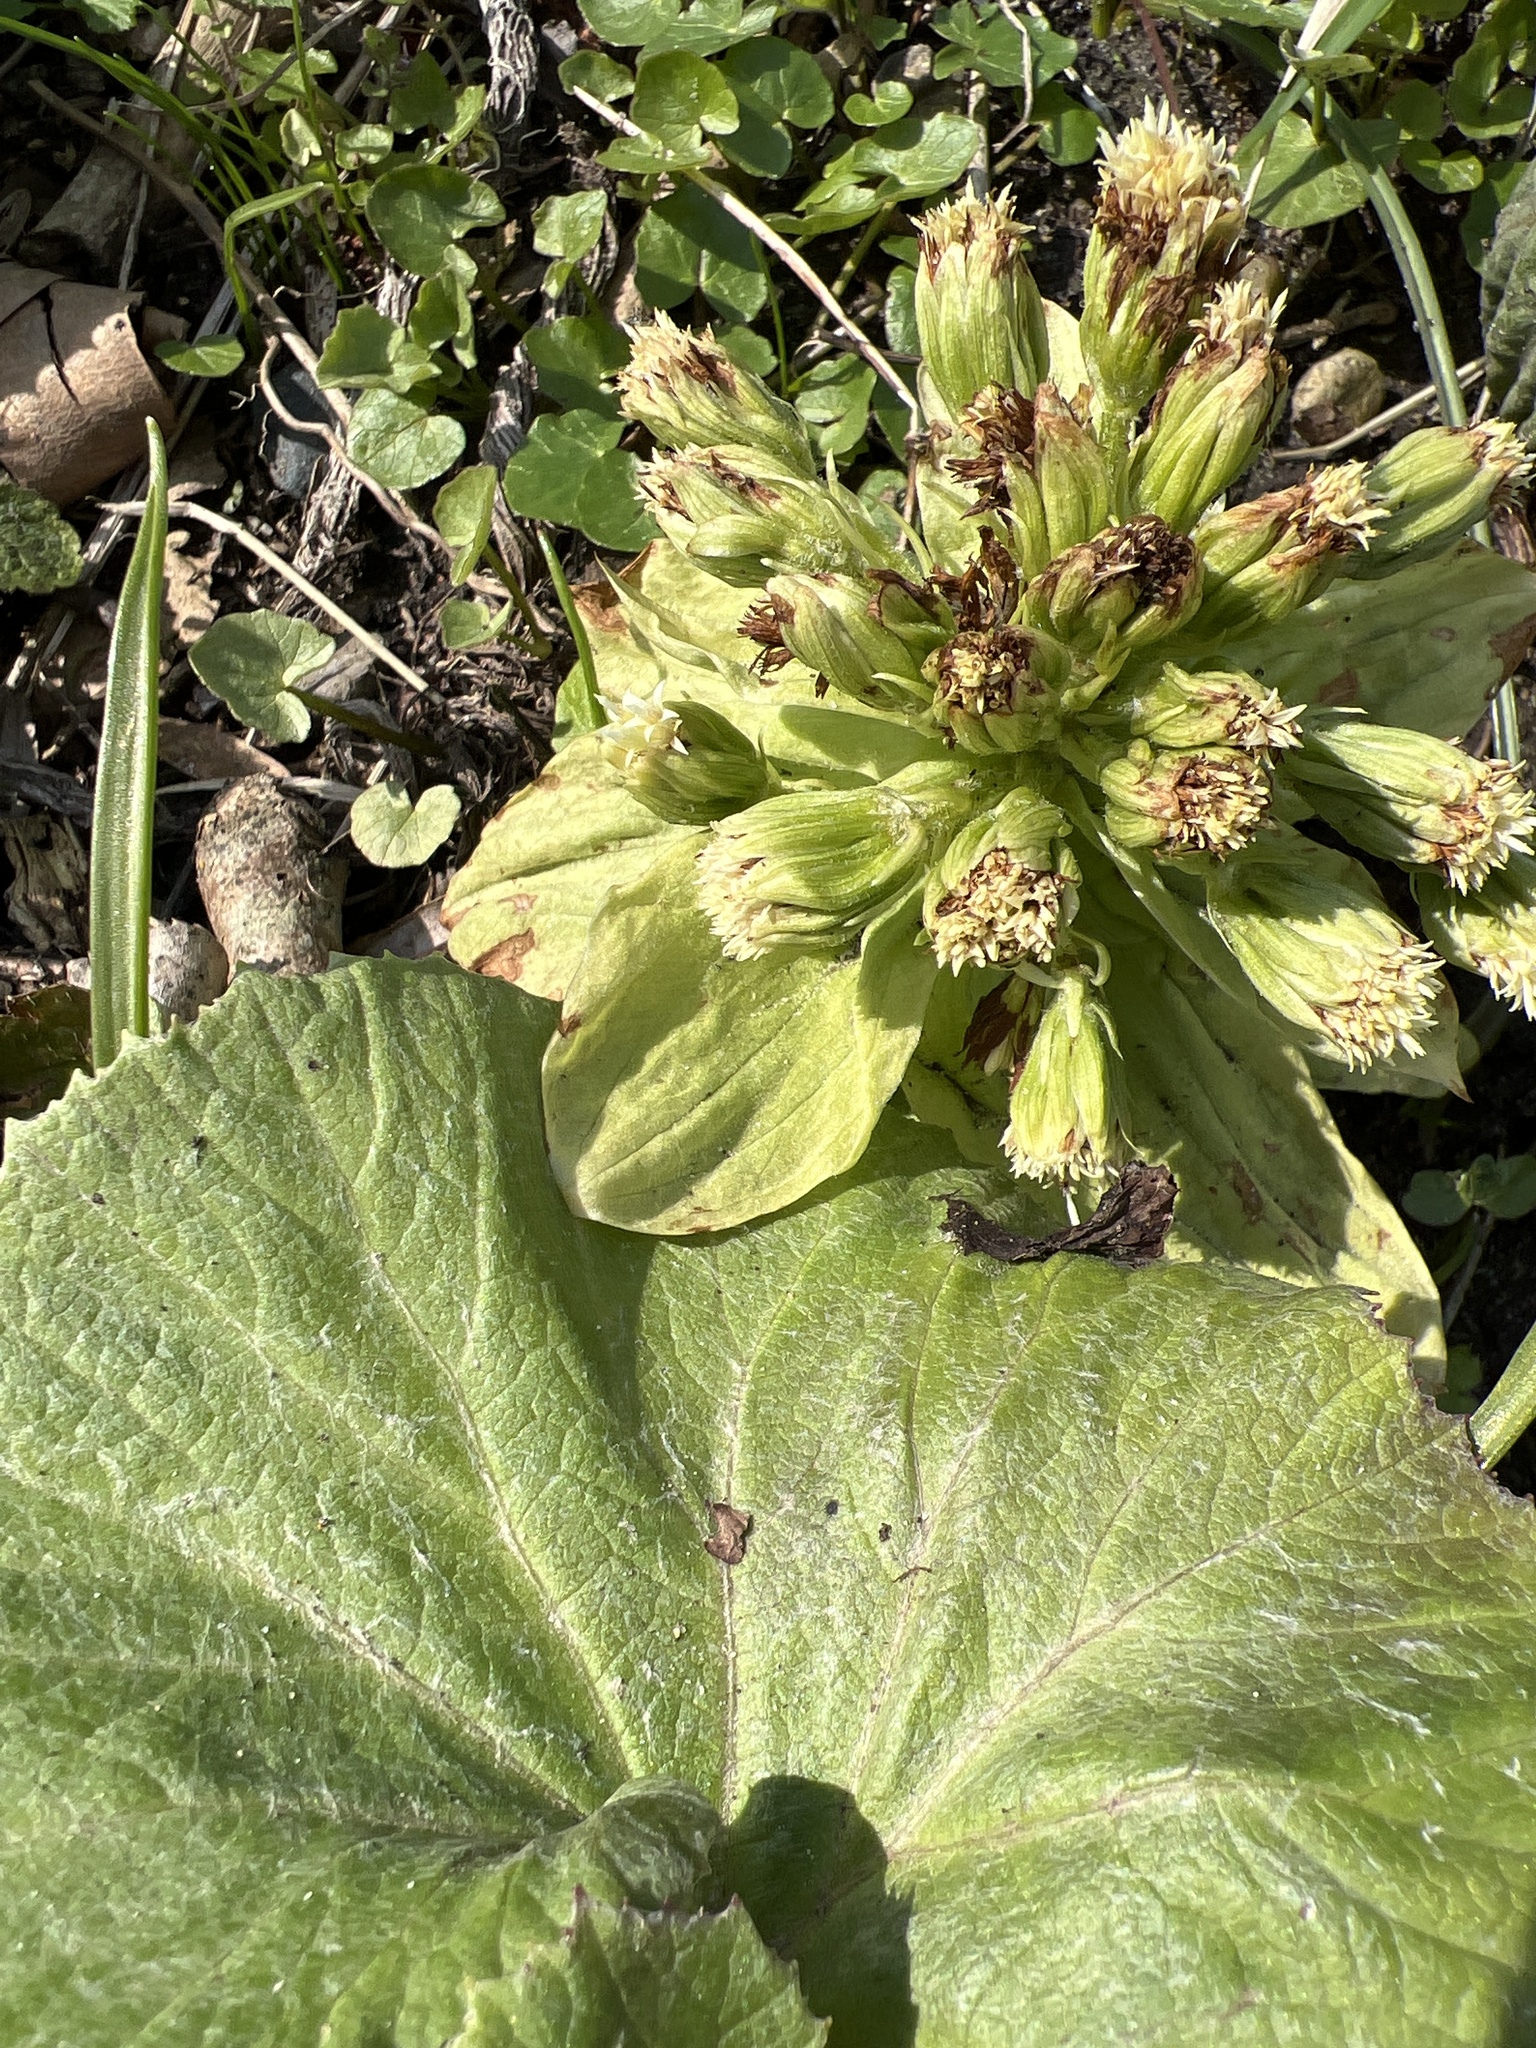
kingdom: Plantae
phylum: Tracheophyta
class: Magnoliopsida
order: Asterales
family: Asteraceae
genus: Petasites
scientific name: Petasites japonicus
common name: Giant butterbur
